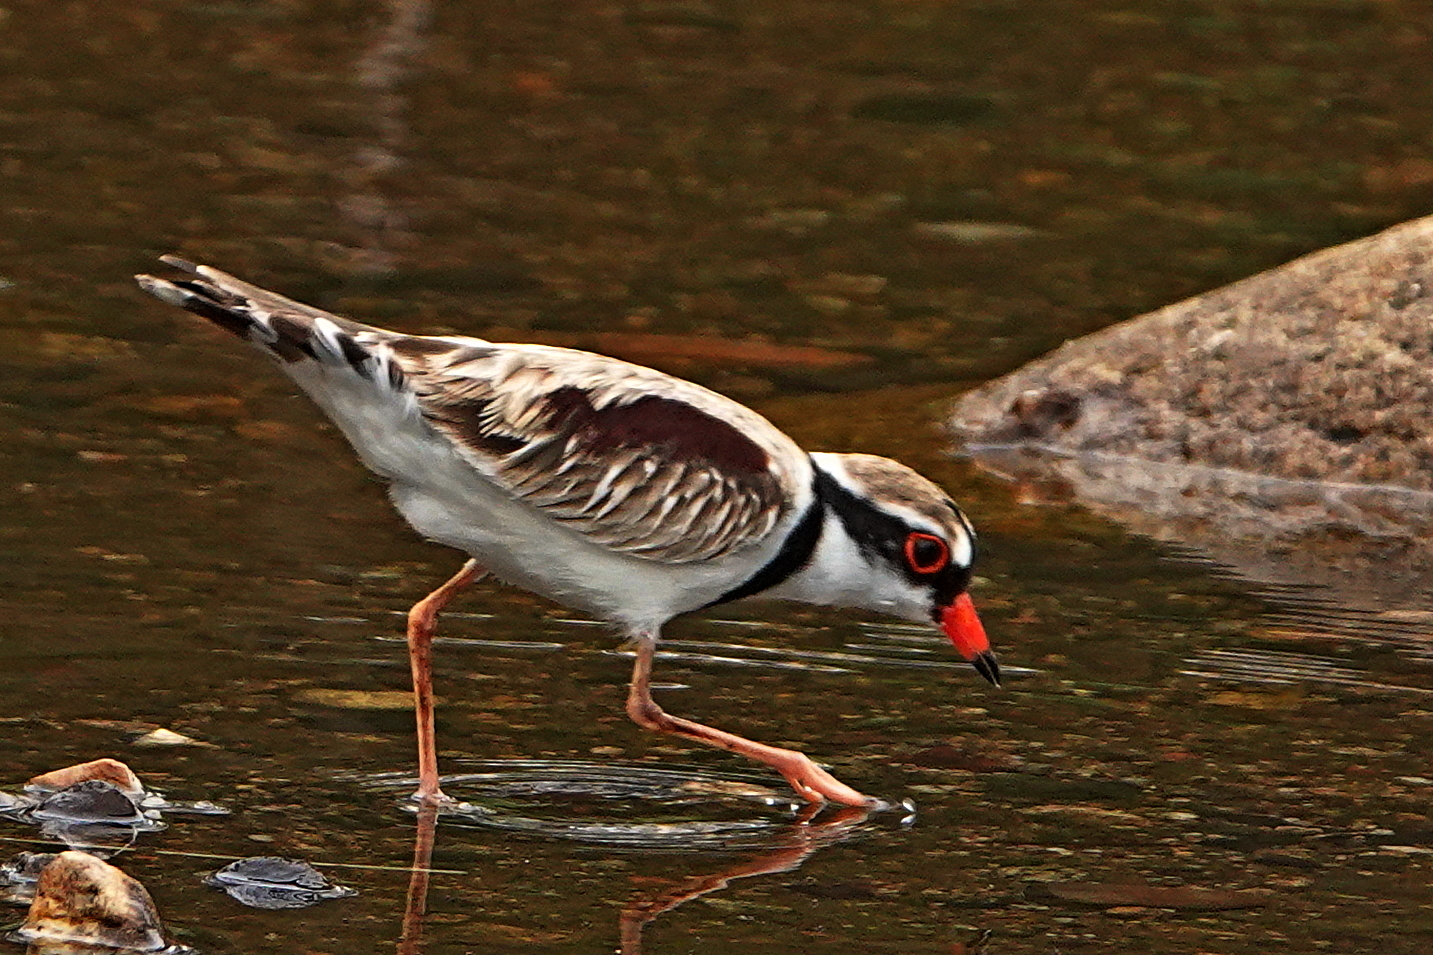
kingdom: Animalia
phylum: Chordata
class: Aves
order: Charadriiformes
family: Charadriidae
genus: Elseyornis
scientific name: Elseyornis melanops
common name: Black-fronted dotterel
